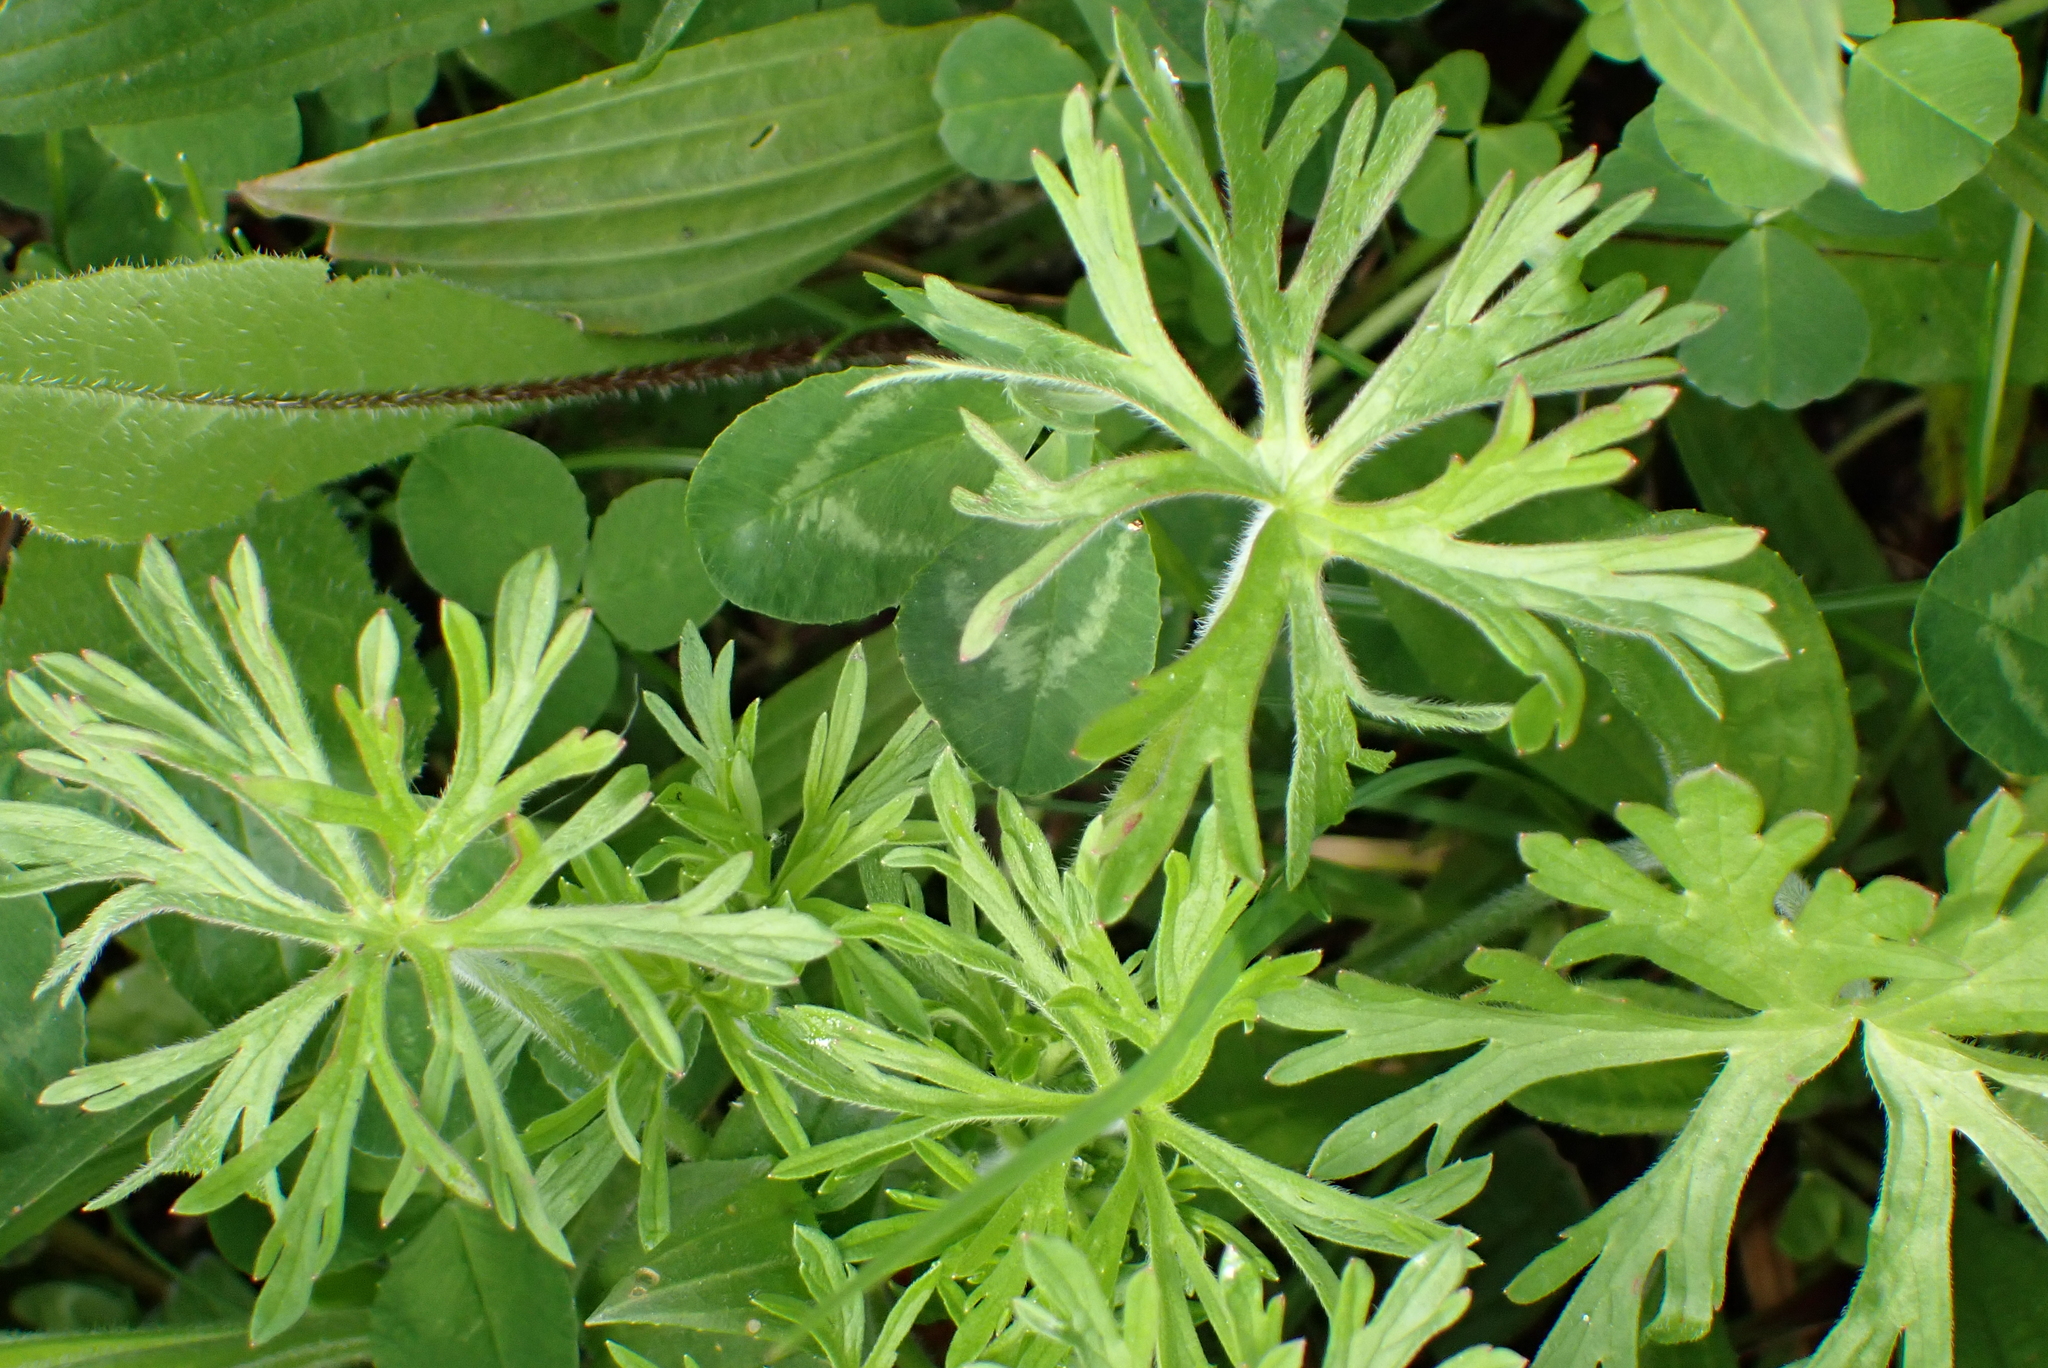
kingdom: Plantae
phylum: Tracheophyta
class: Magnoliopsida
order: Geraniales
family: Geraniaceae
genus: Geranium
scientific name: Geranium dissectum
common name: Cut-leaved crane's-bill
